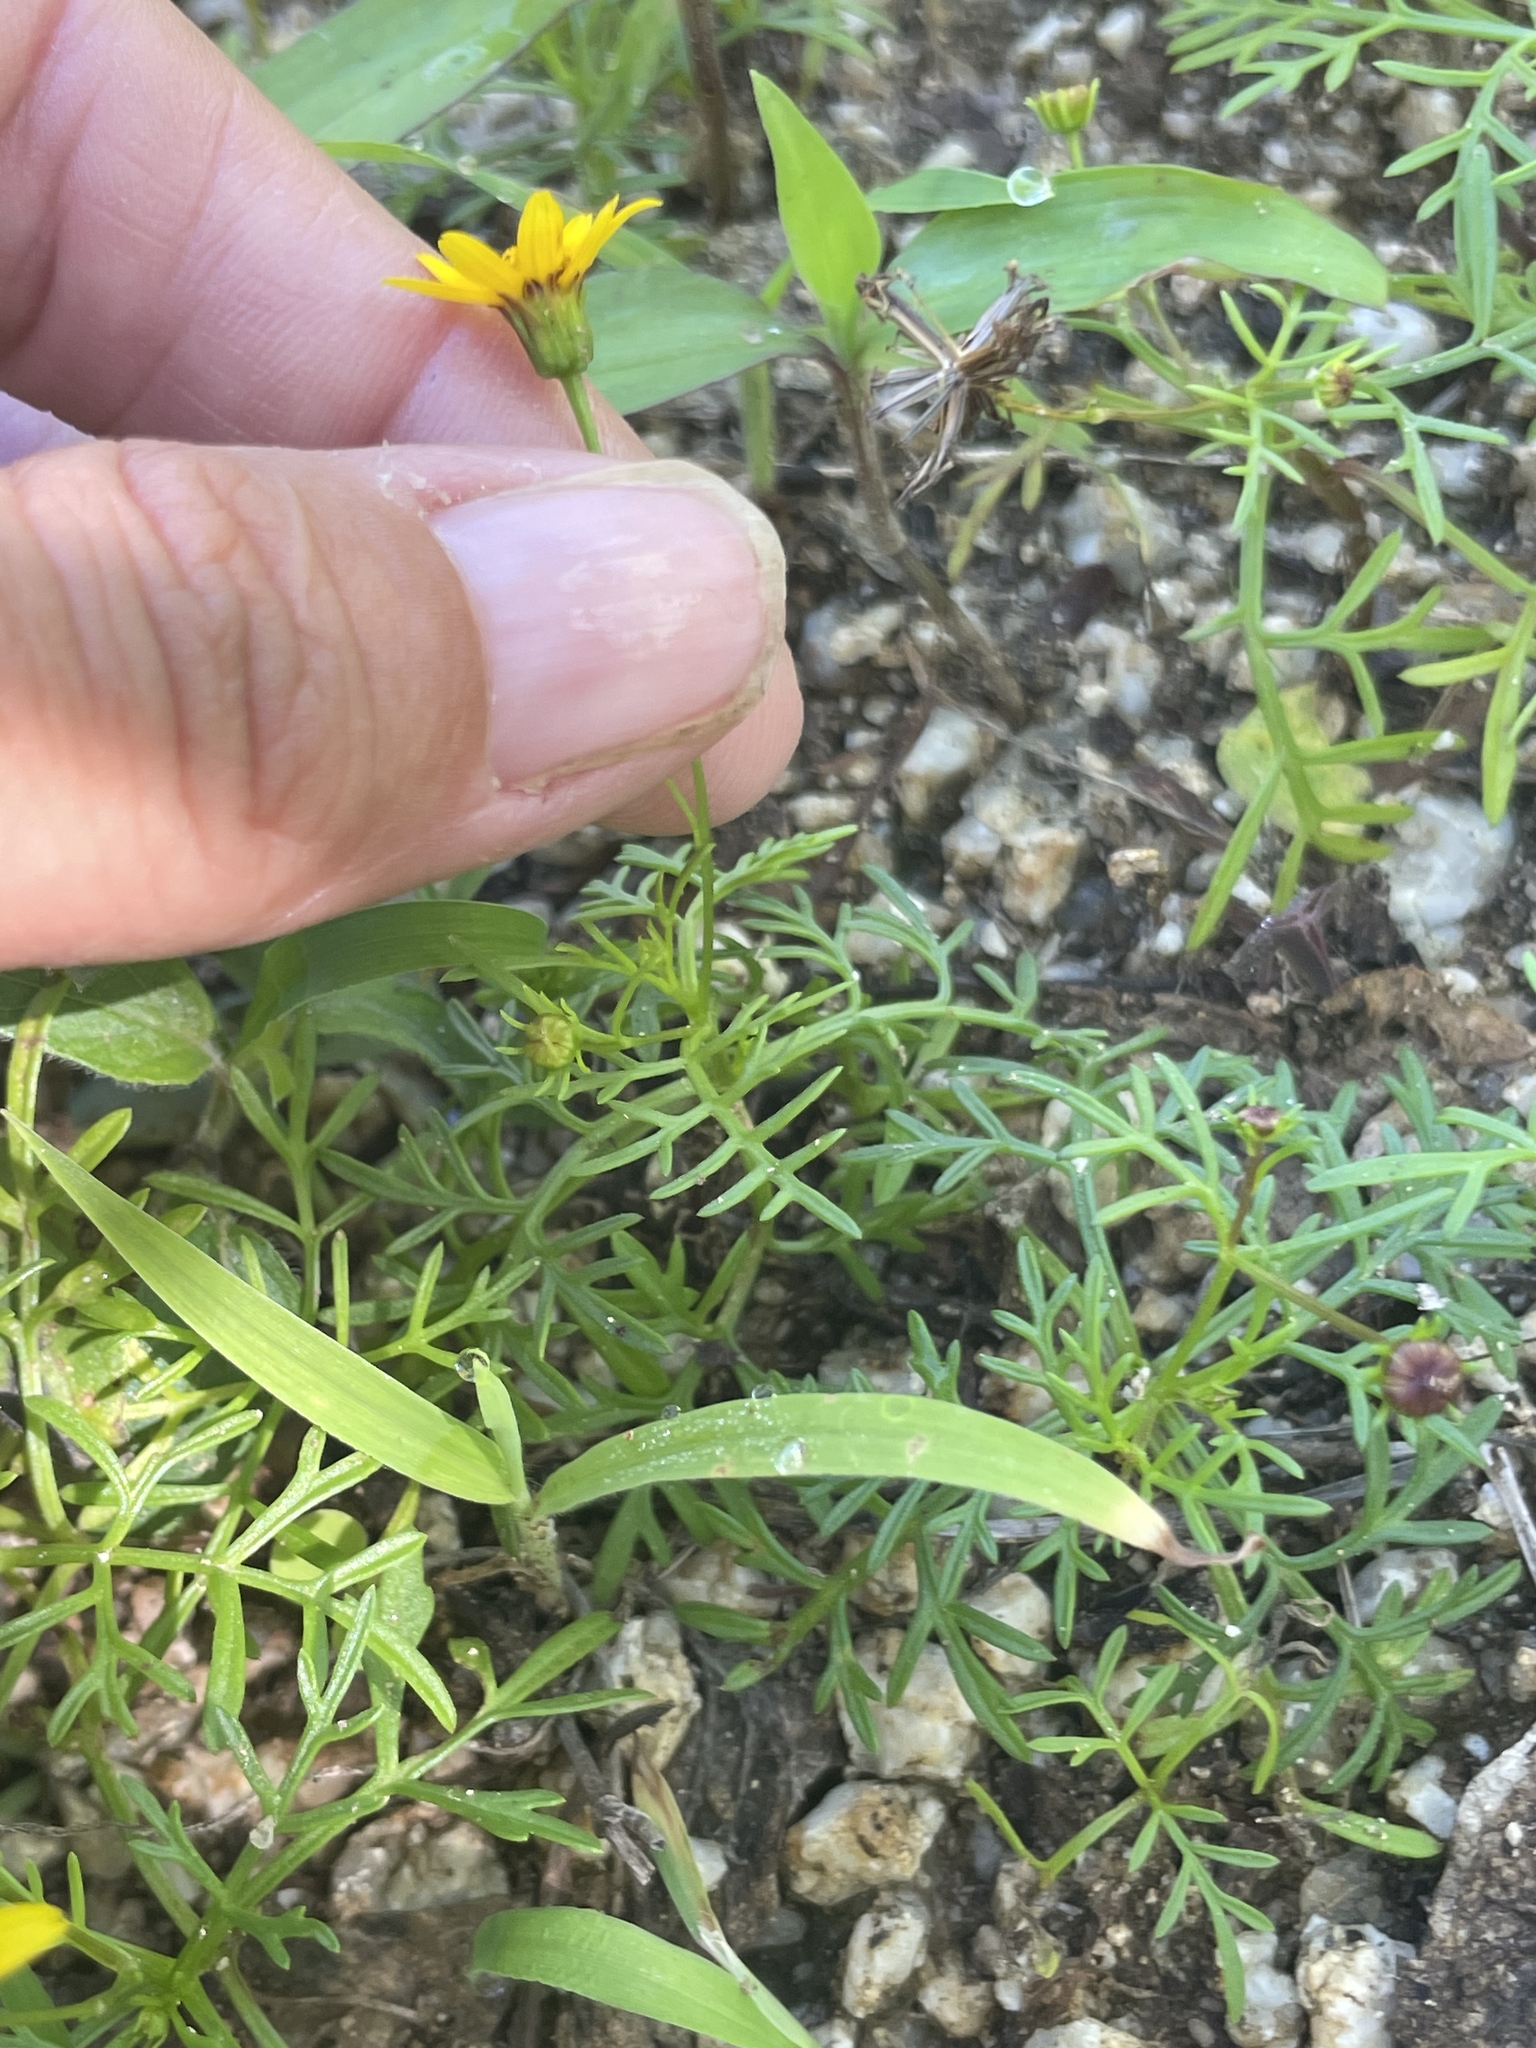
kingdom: Plantae
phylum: Tracheophyta
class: Magnoliopsida
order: Asterales
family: Asteraceae
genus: Bidens
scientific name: Bidens xanti
